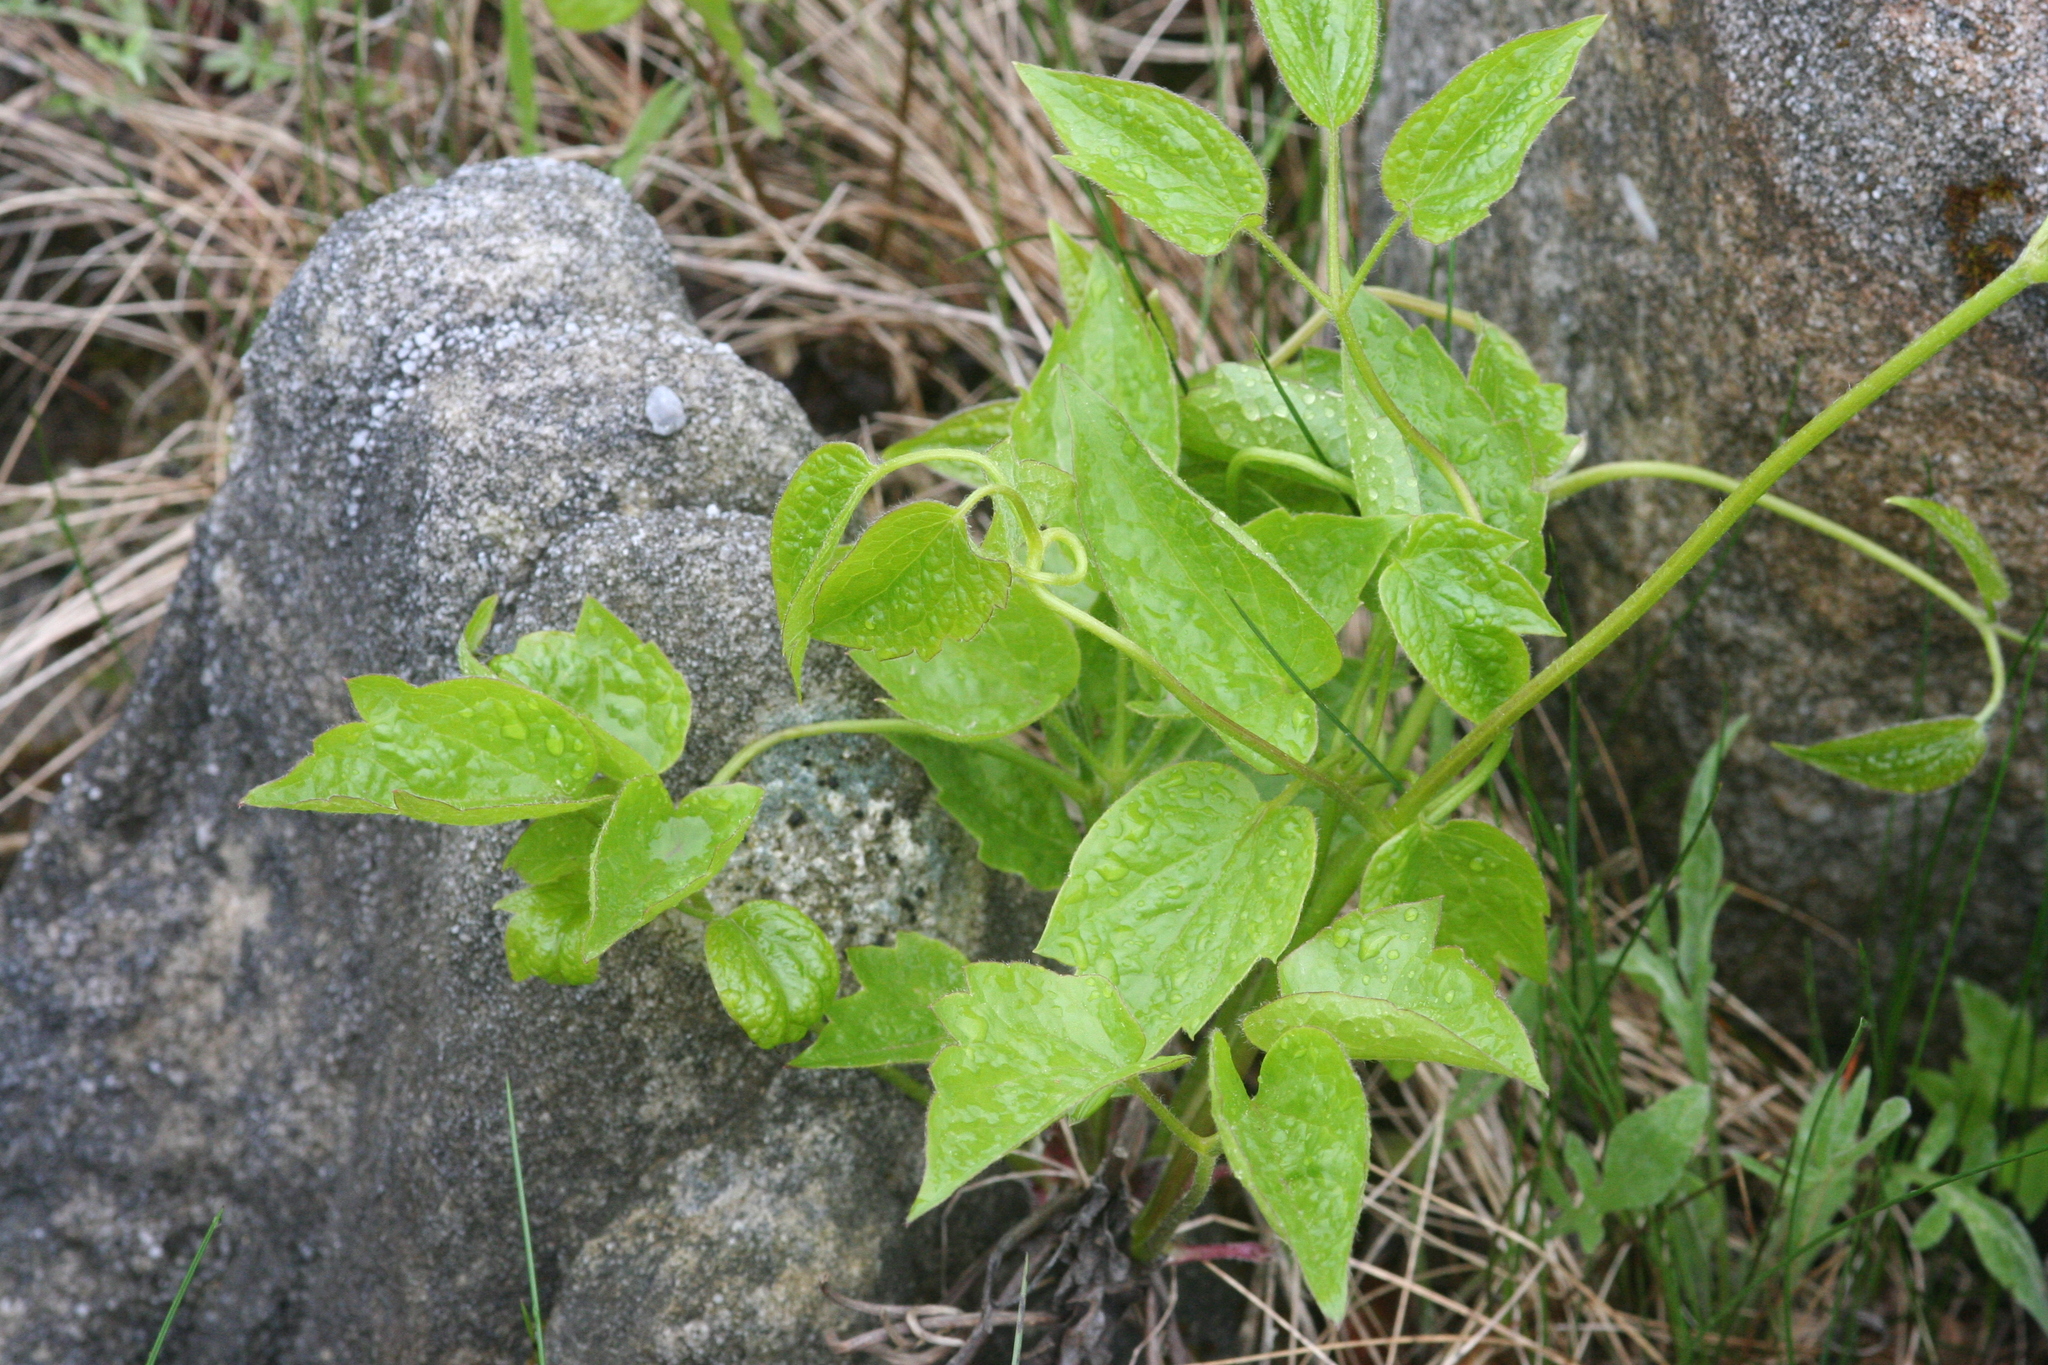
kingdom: Plantae
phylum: Tracheophyta
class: Magnoliopsida
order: Ranunculales
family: Ranunculaceae
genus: Clematis
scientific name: Clematis virginiana
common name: Virgin's-bower
